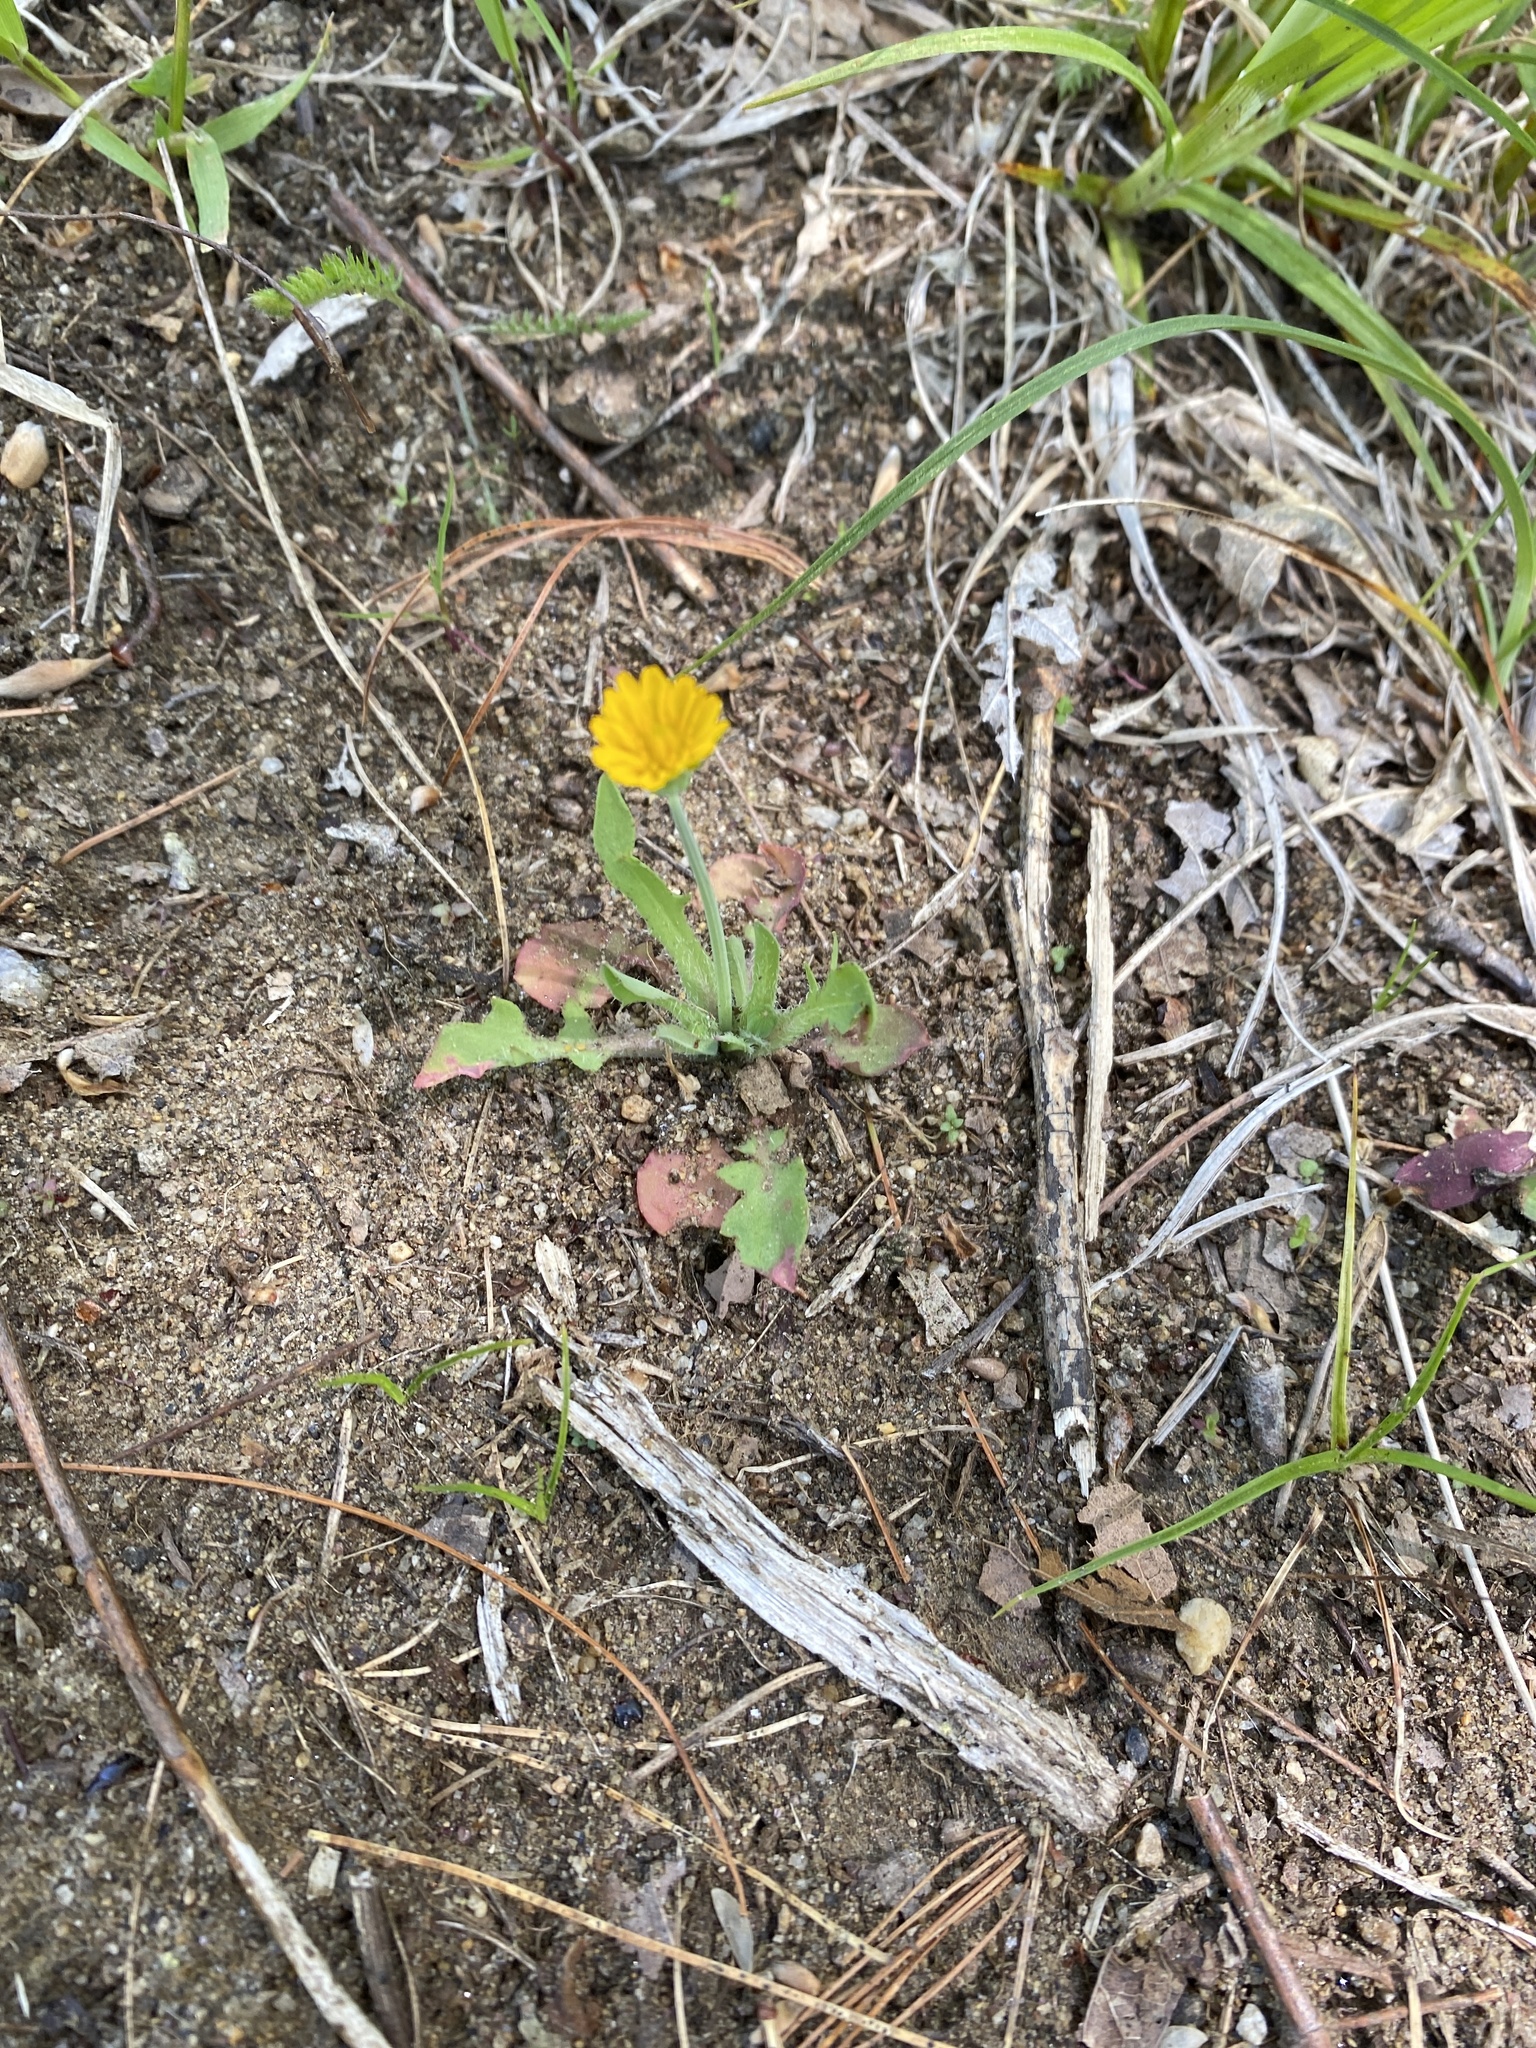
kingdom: Plantae
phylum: Tracheophyta
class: Magnoliopsida
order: Asterales
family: Asteraceae
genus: Krigia
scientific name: Krigia virginica
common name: Virginia dwarf-dandelion
